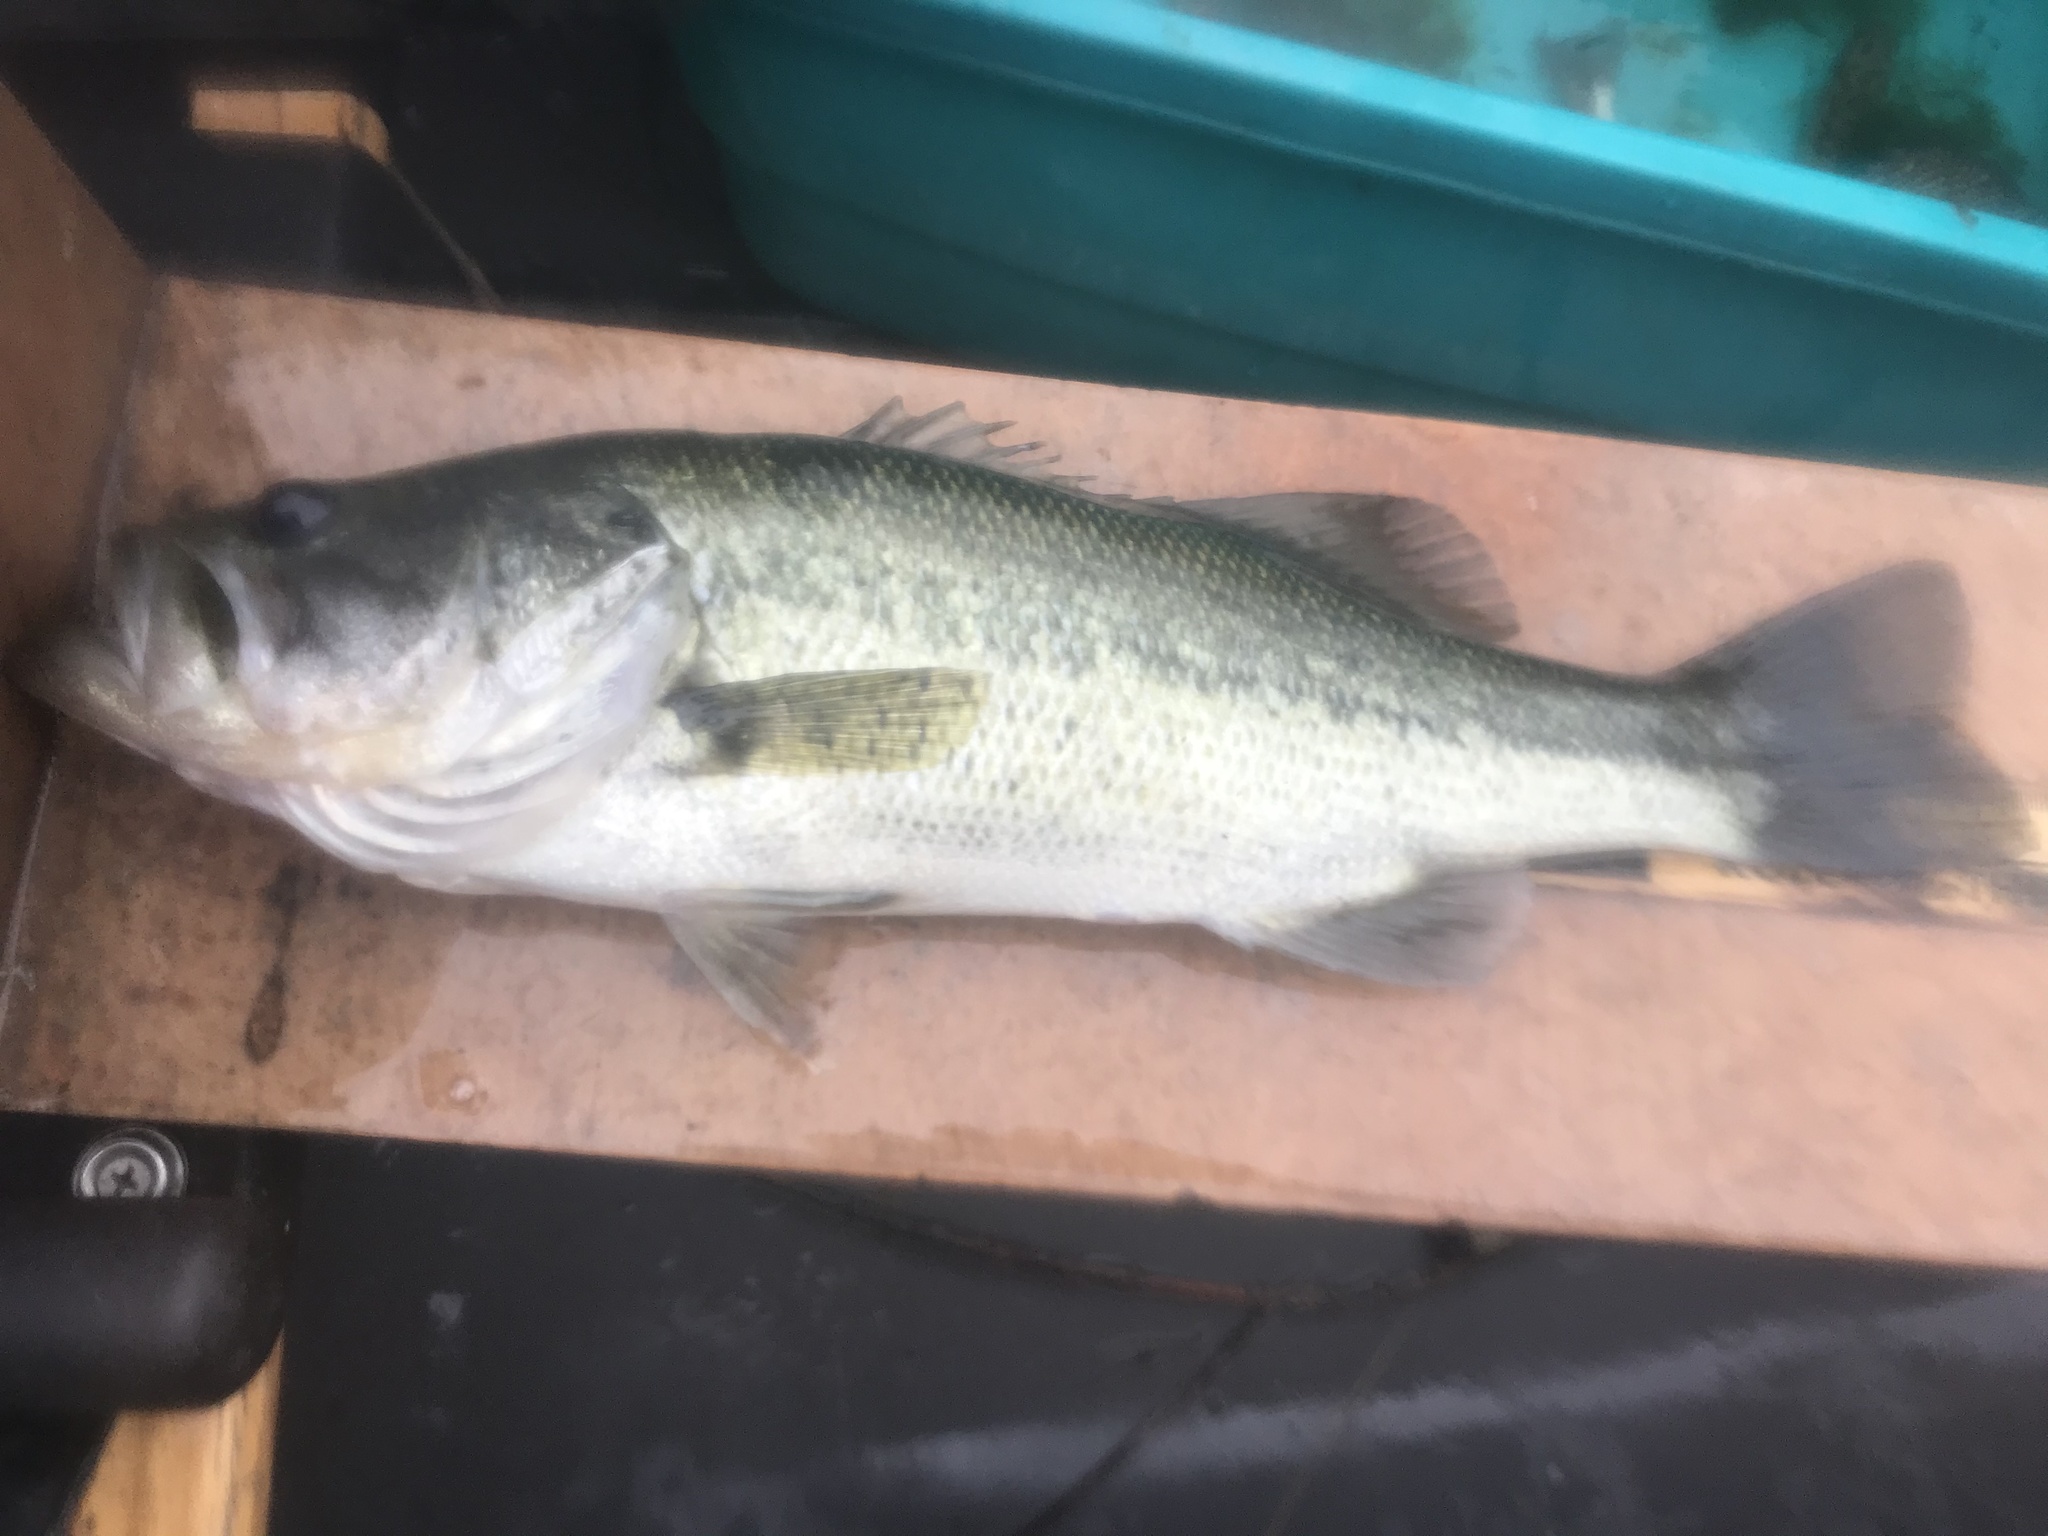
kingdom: Animalia
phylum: Chordata
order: Perciformes
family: Centrarchidae
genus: Micropterus
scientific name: Micropterus
